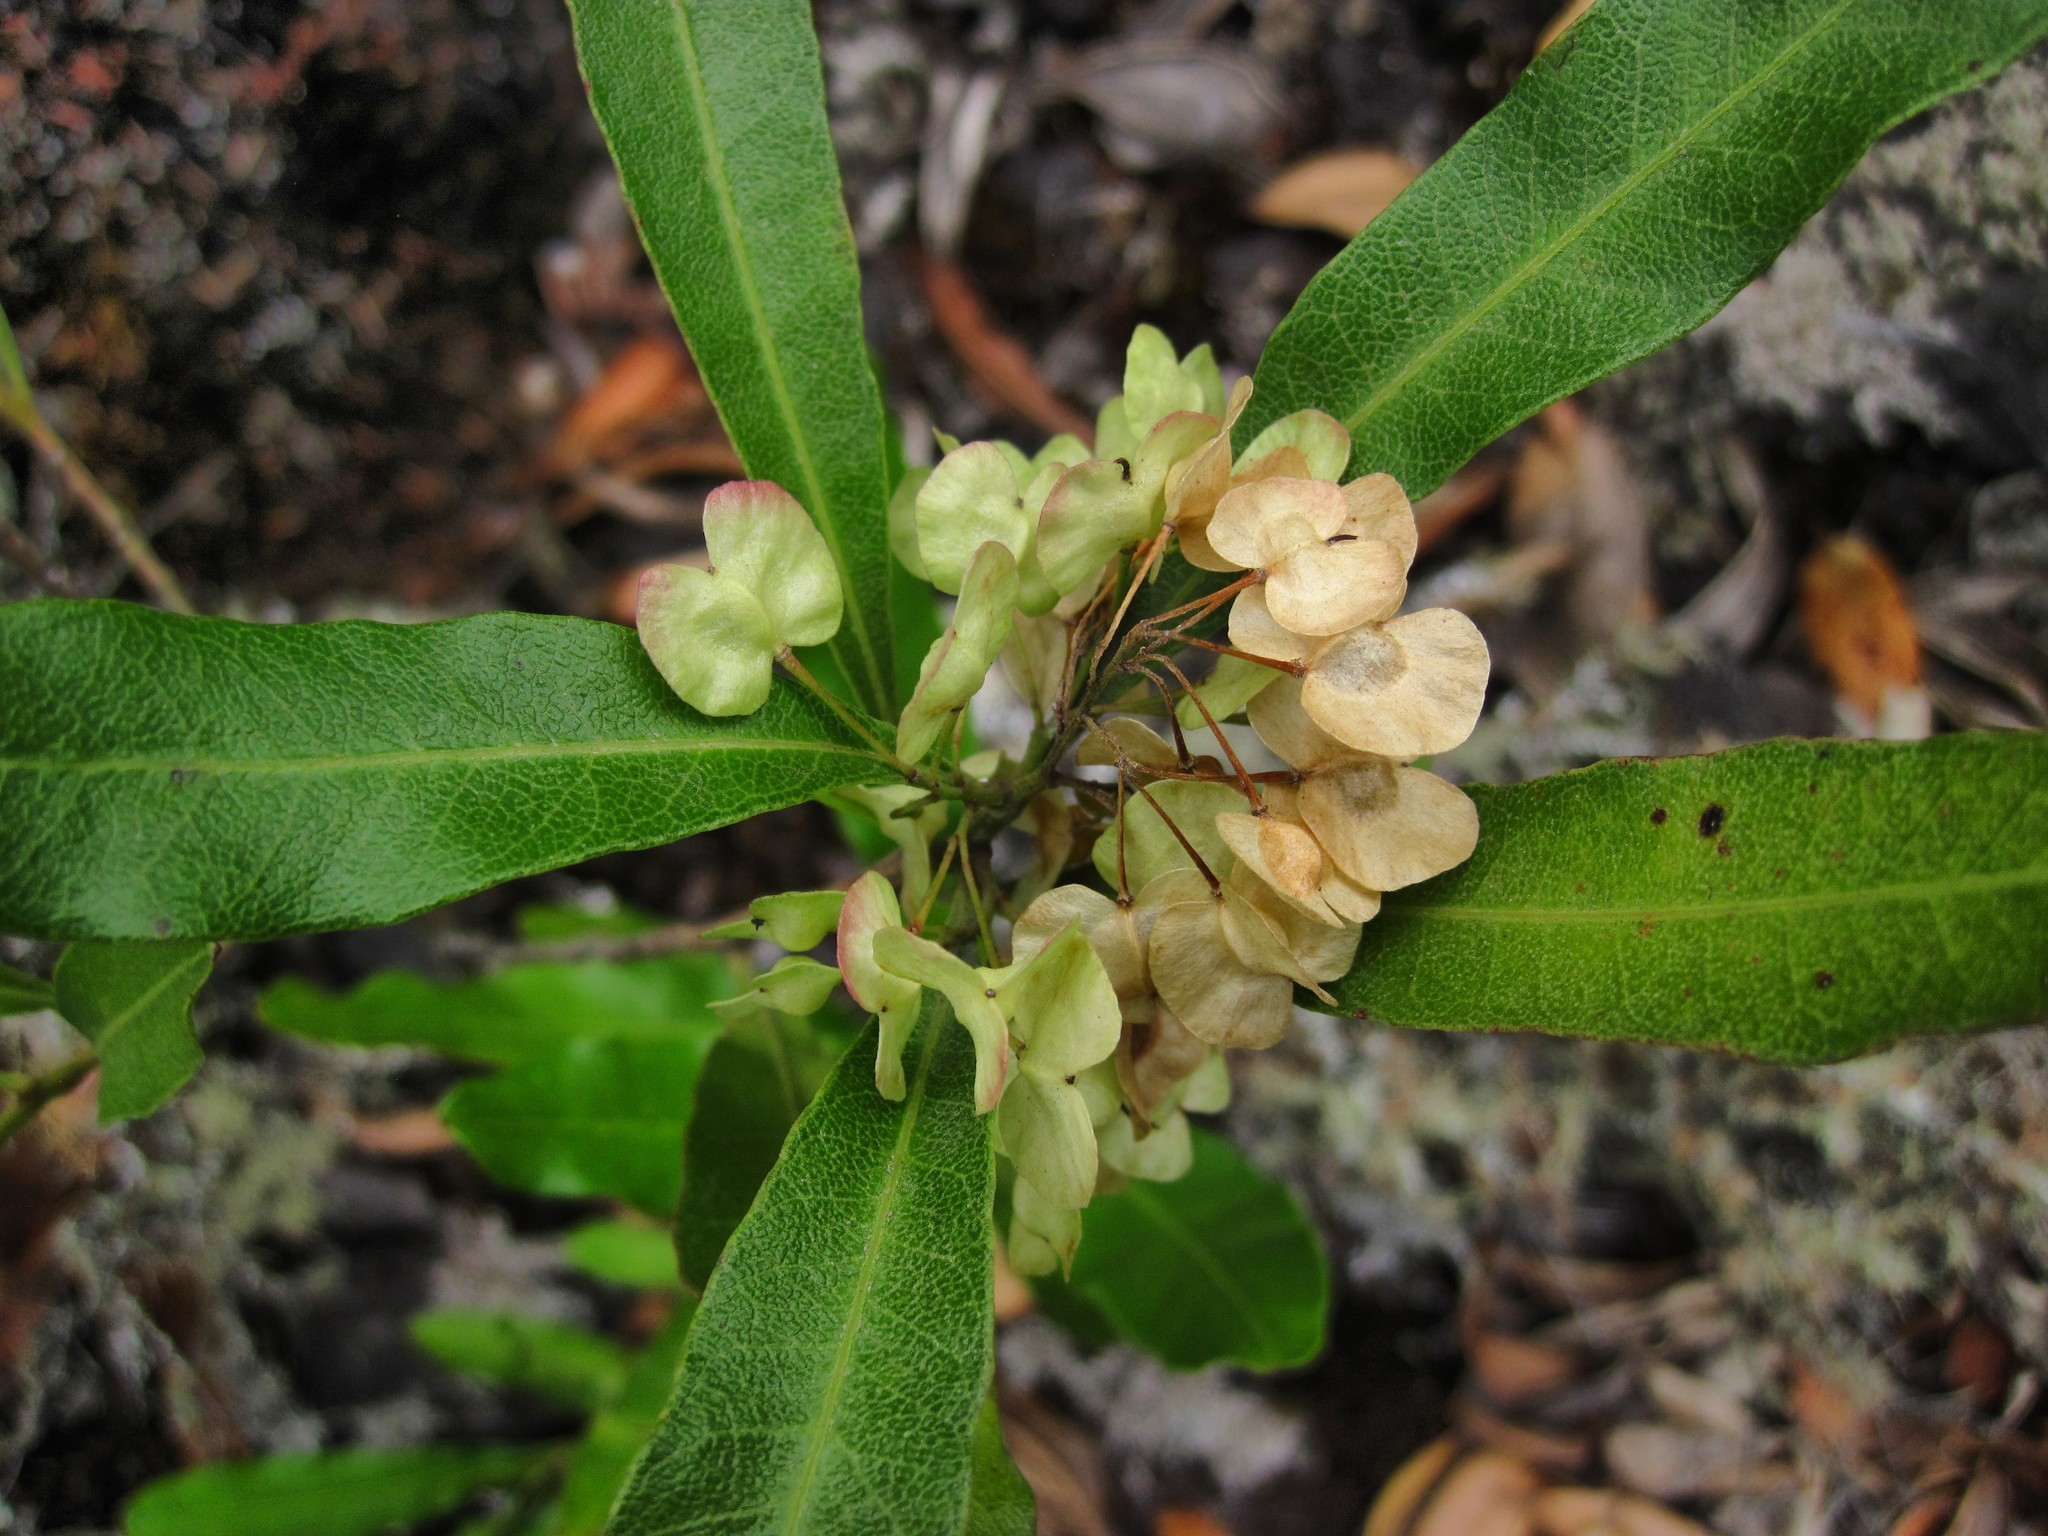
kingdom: Plantae
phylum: Tracheophyta
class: Magnoliopsida
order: Sapindales
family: Sapindaceae
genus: Dodonaea
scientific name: Dodonaea viscosa
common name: Hopbush
